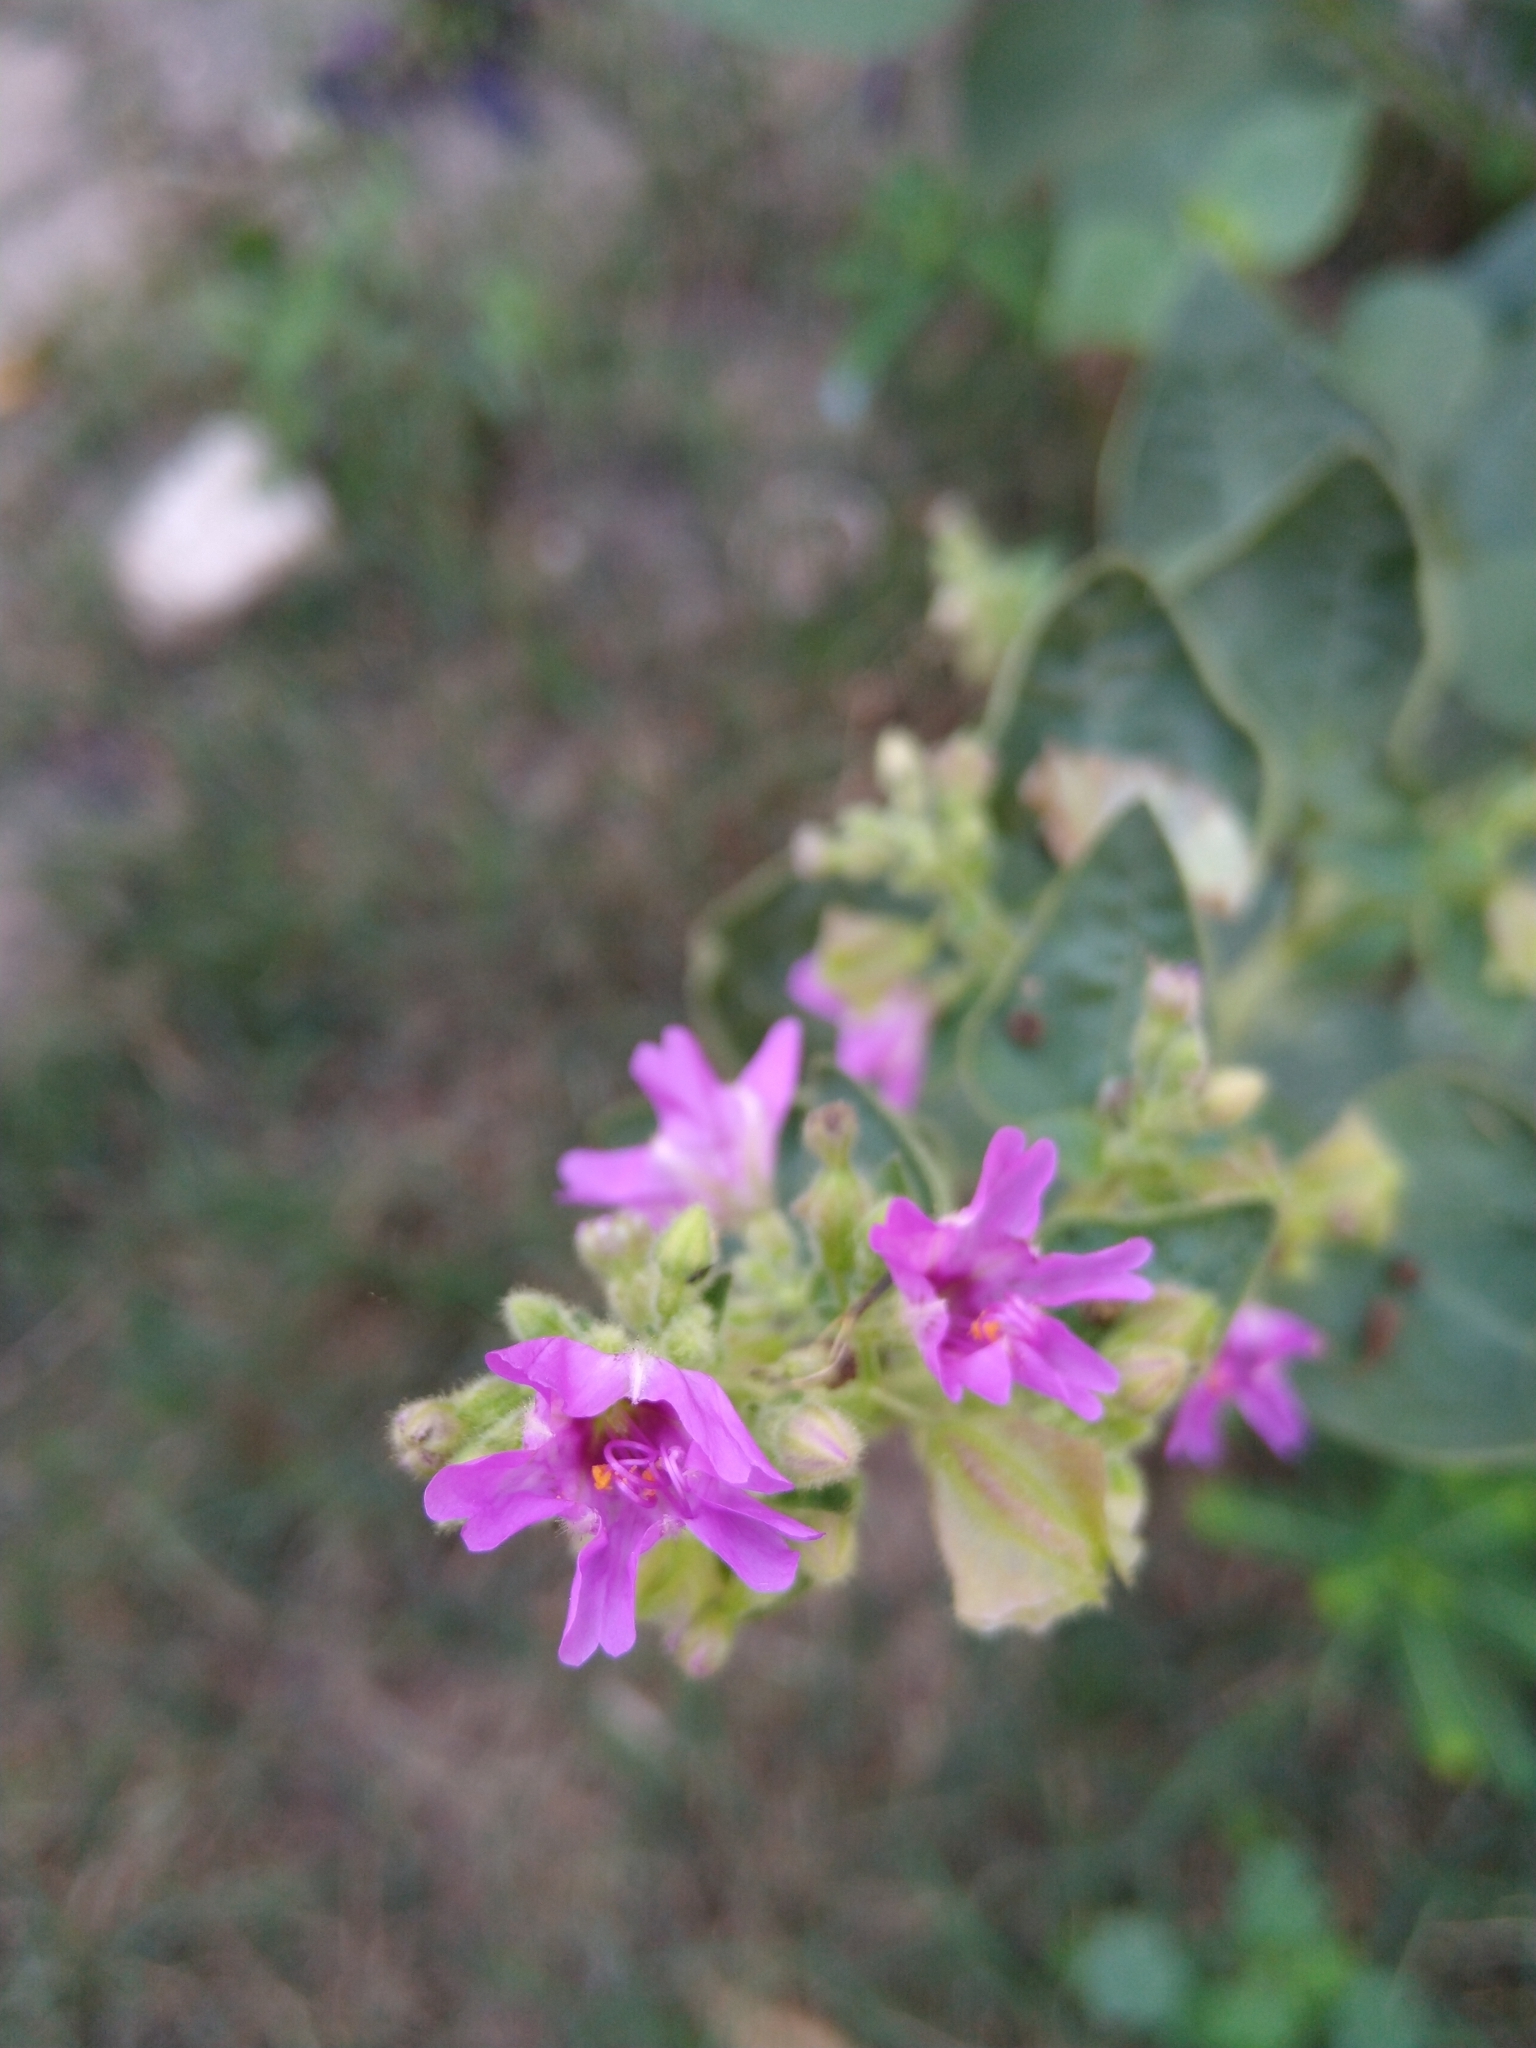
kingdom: Plantae
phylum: Tracheophyta
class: Magnoliopsida
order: Caryophyllales
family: Nyctaginaceae
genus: Mirabilis
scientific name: Mirabilis violacea
